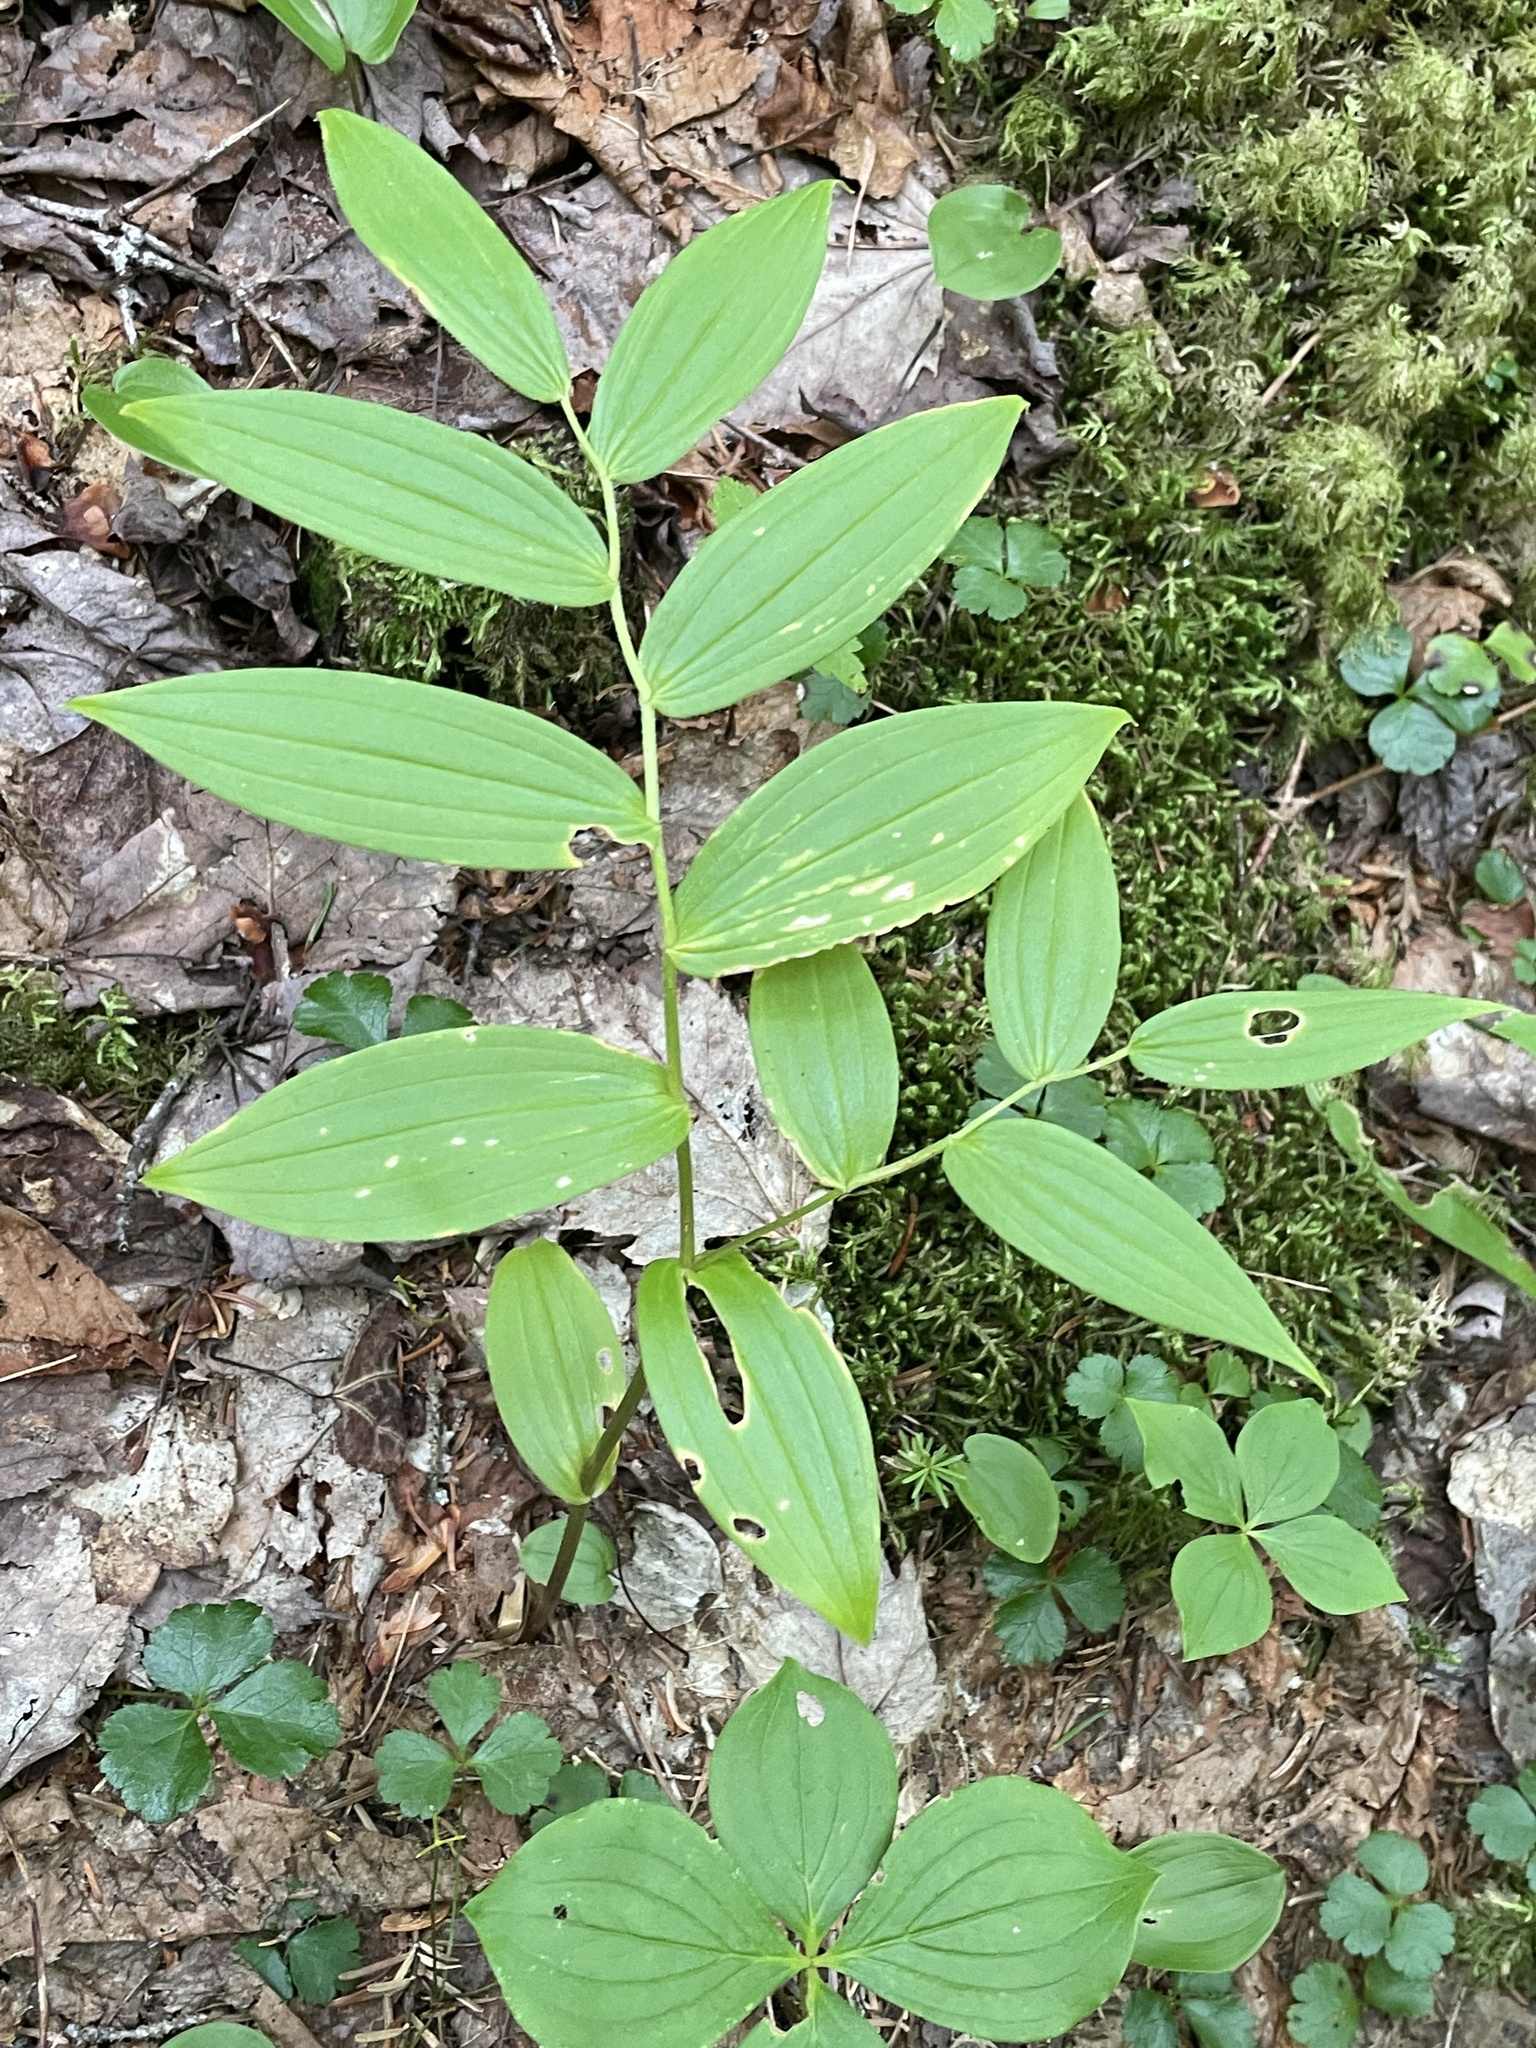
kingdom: Plantae
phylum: Tracheophyta
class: Liliopsida
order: Liliales
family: Liliaceae
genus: Streptopus
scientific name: Streptopus lanceolatus
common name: Rose mandarin
